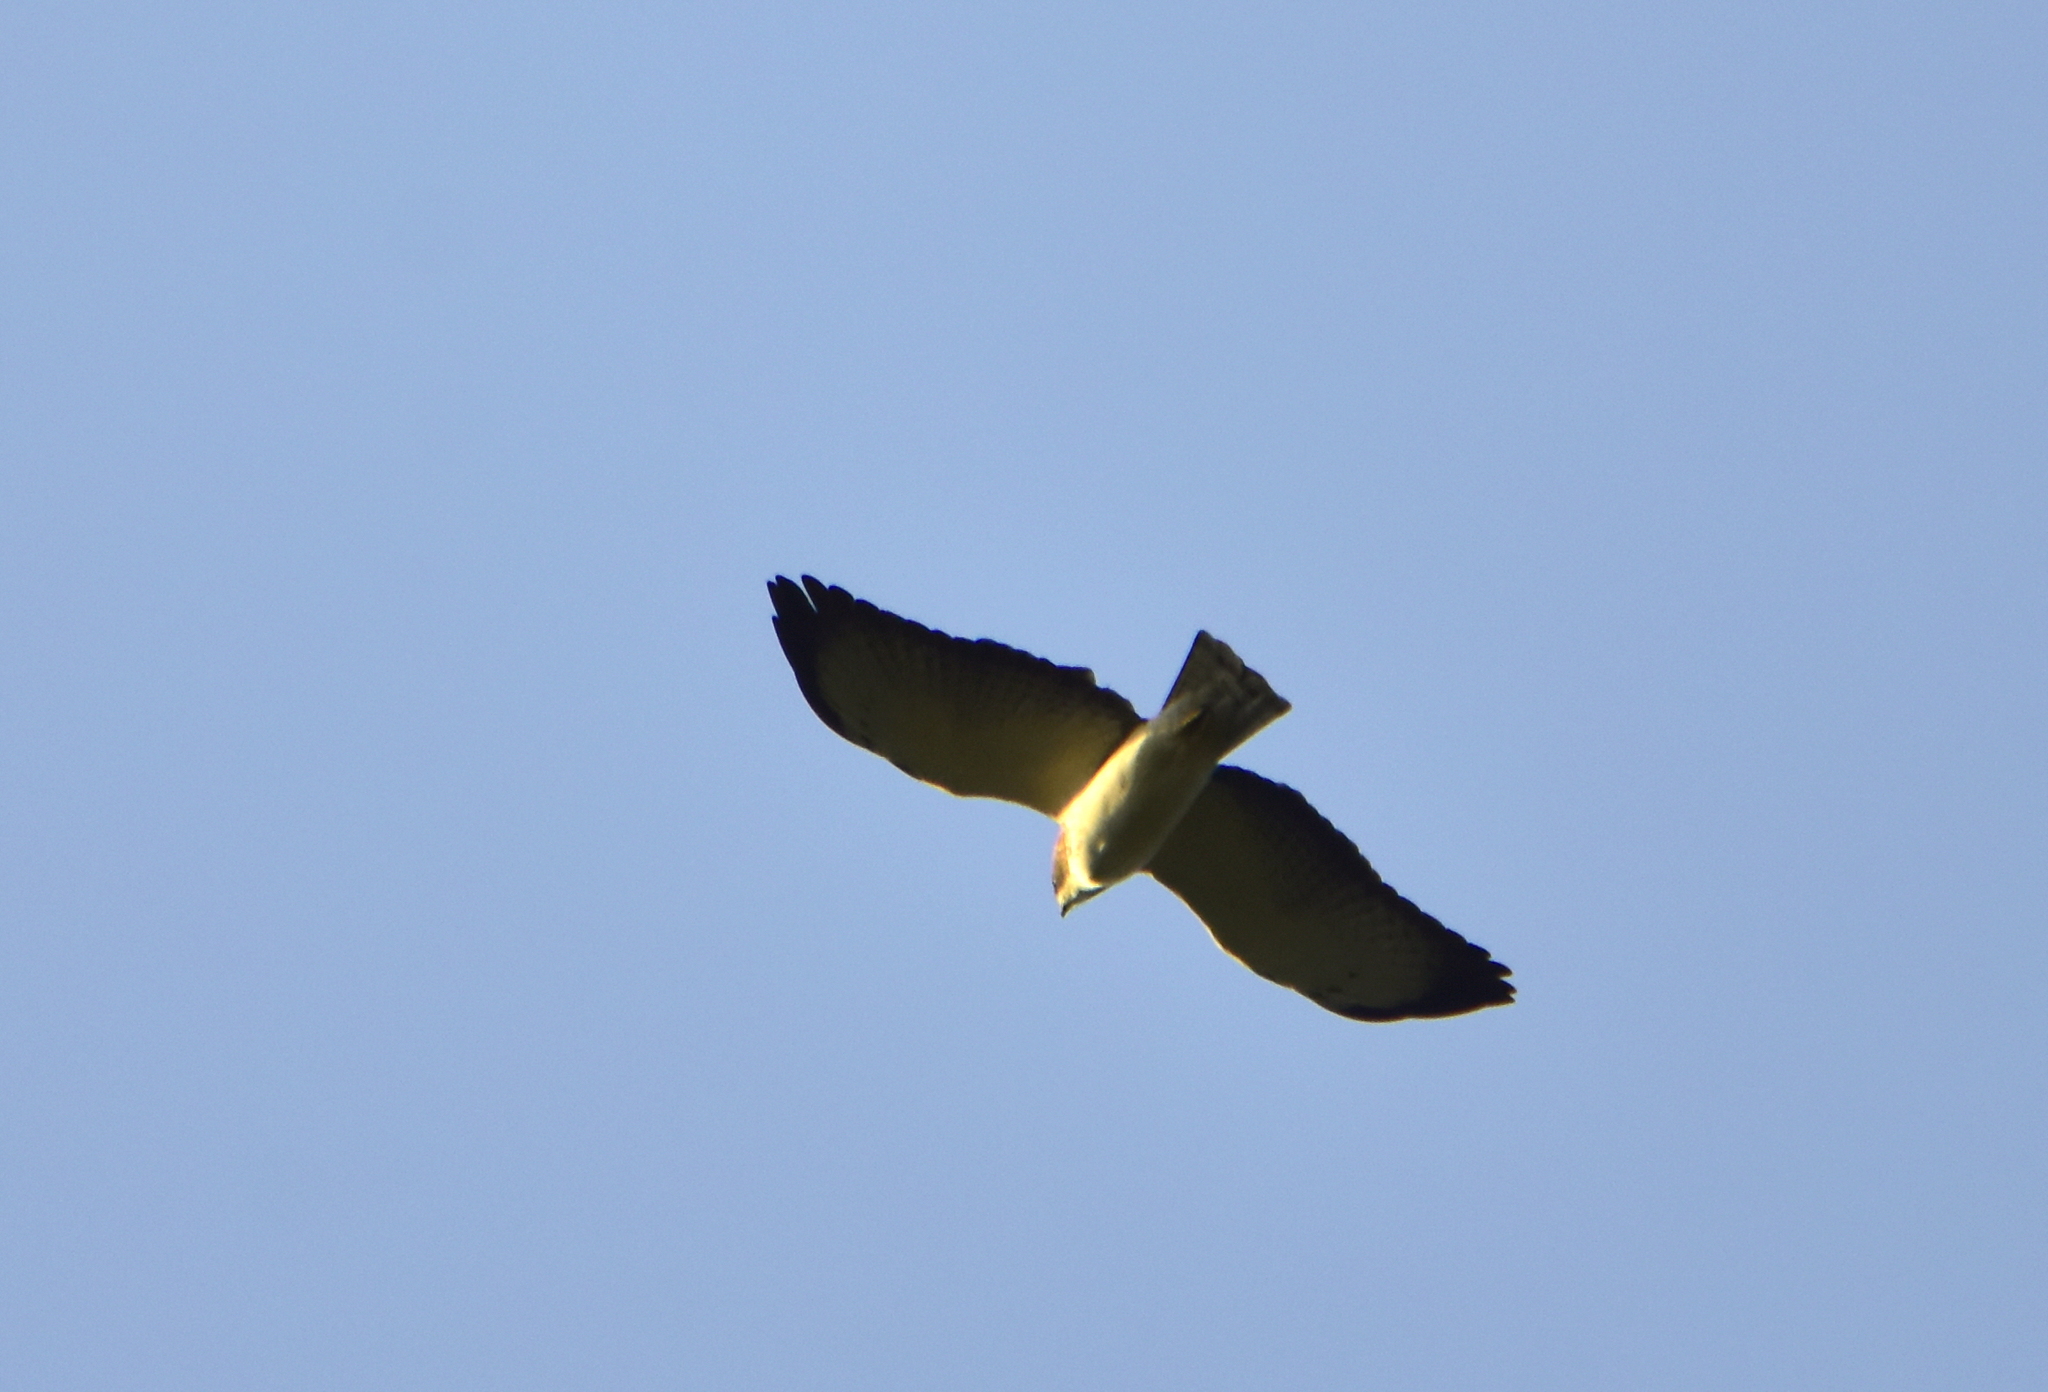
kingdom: Animalia
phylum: Chordata
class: Aves
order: Accipitriformes
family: Accipitridae
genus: Buteo
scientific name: Buteo brachyurus
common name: Short-tailed hawk
